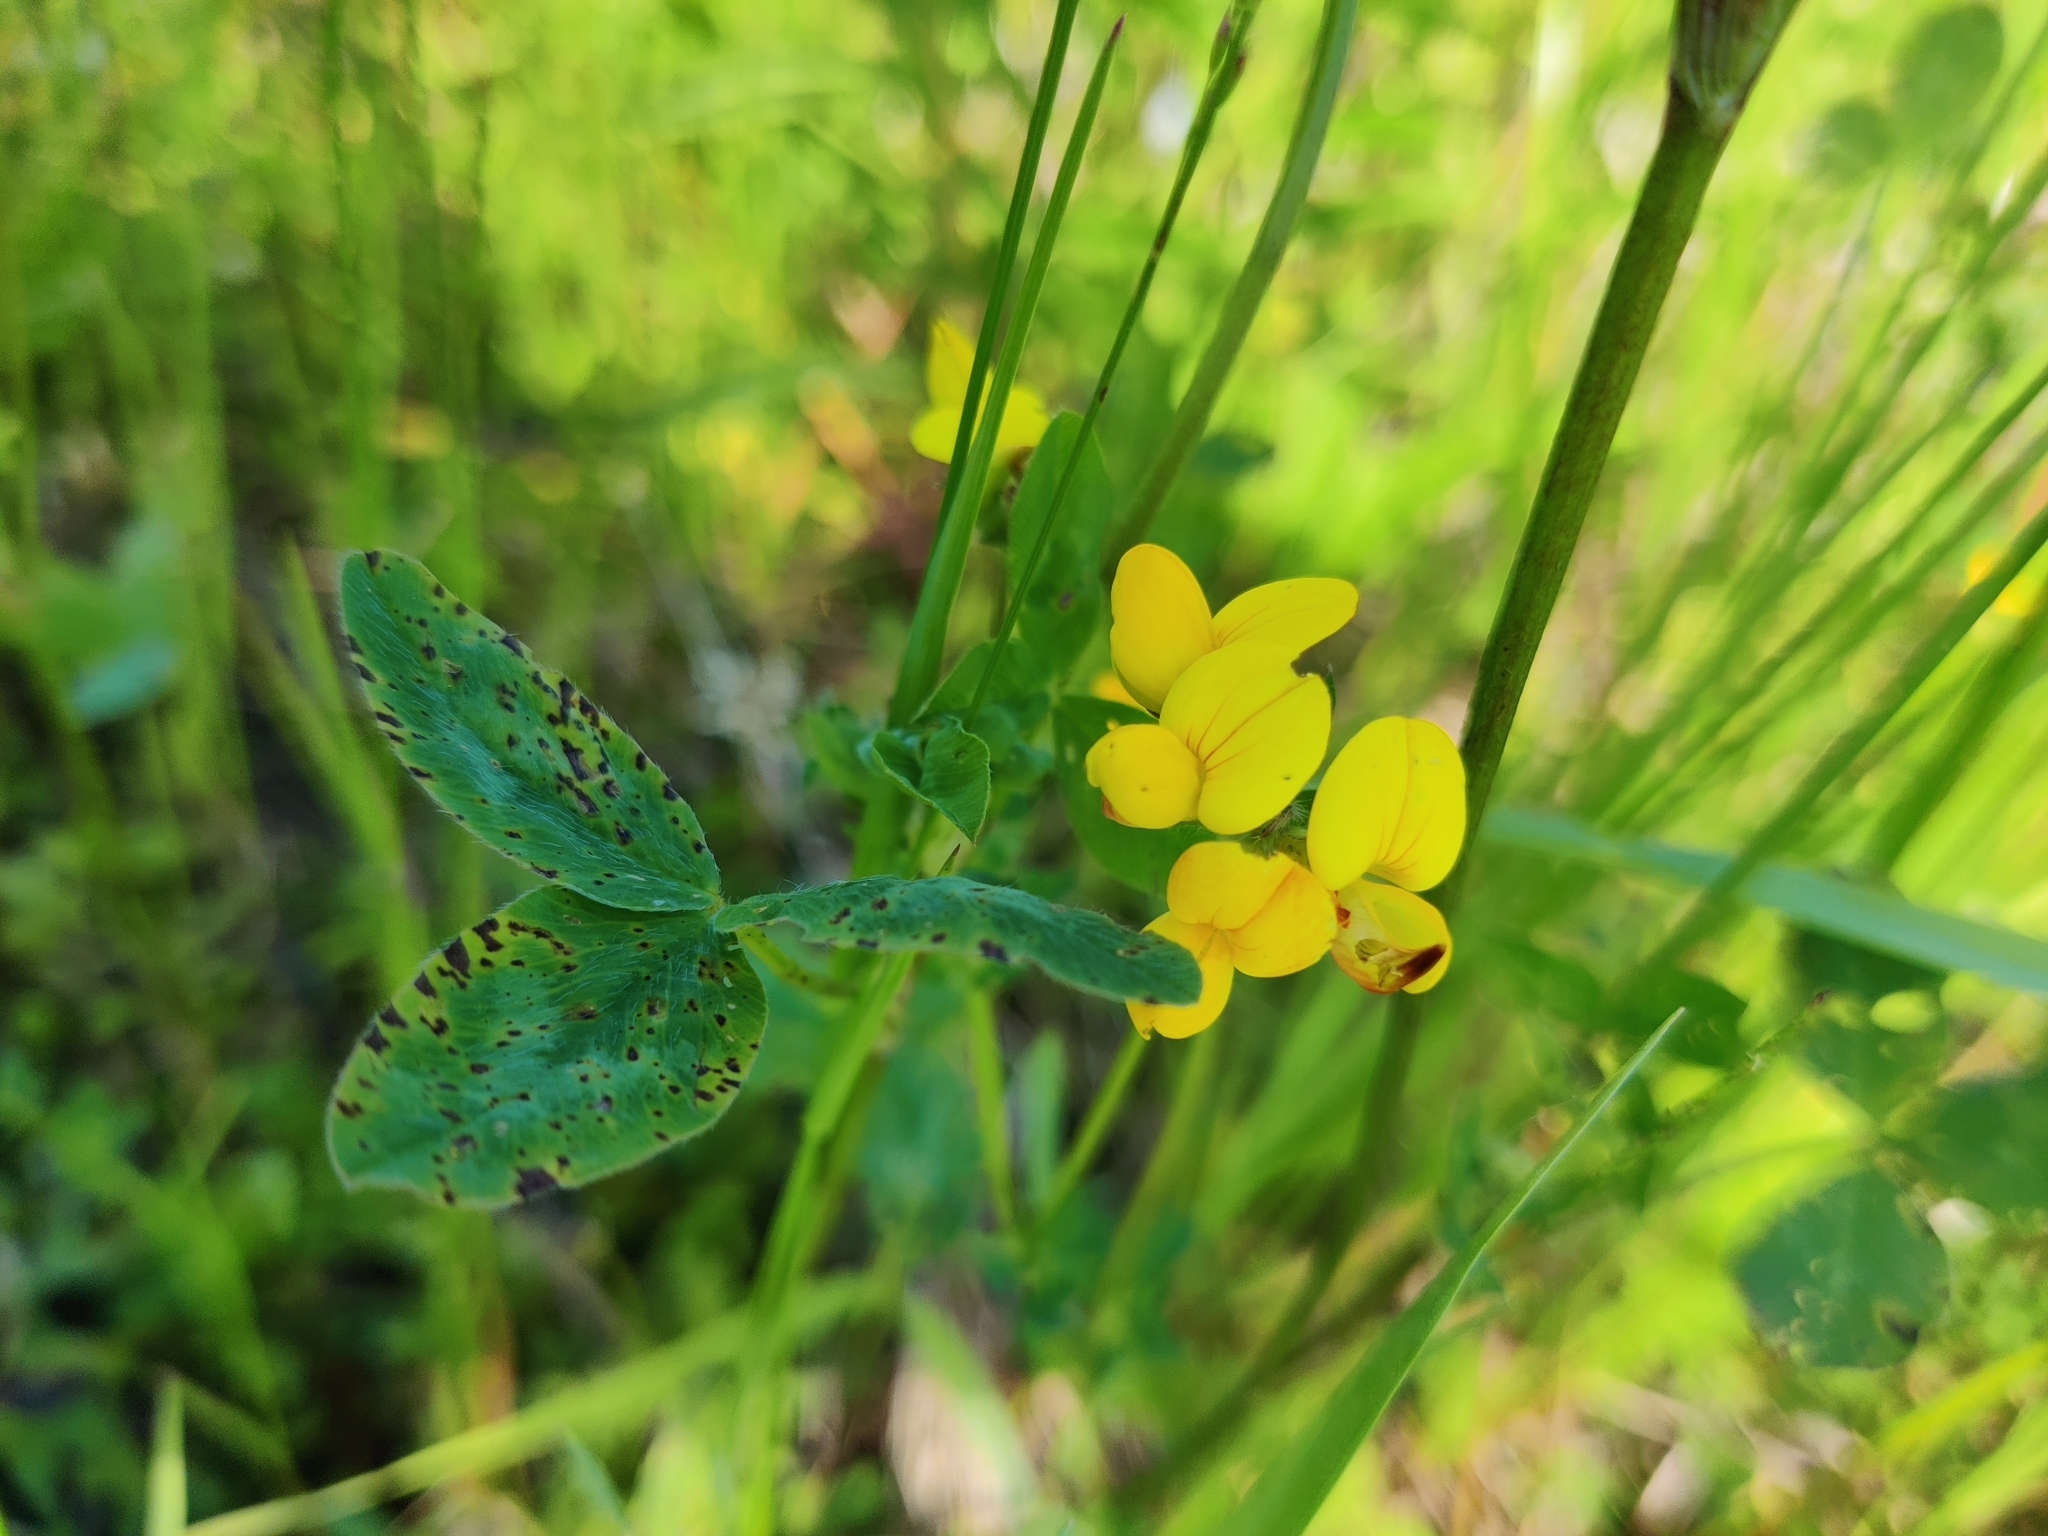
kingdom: Plantae
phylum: Tracheophyta
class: Magnoliopsida
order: Fabales
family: Fabaceae
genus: Lotus
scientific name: Lotus corniculatus
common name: Common bird's-foot-trefoil
